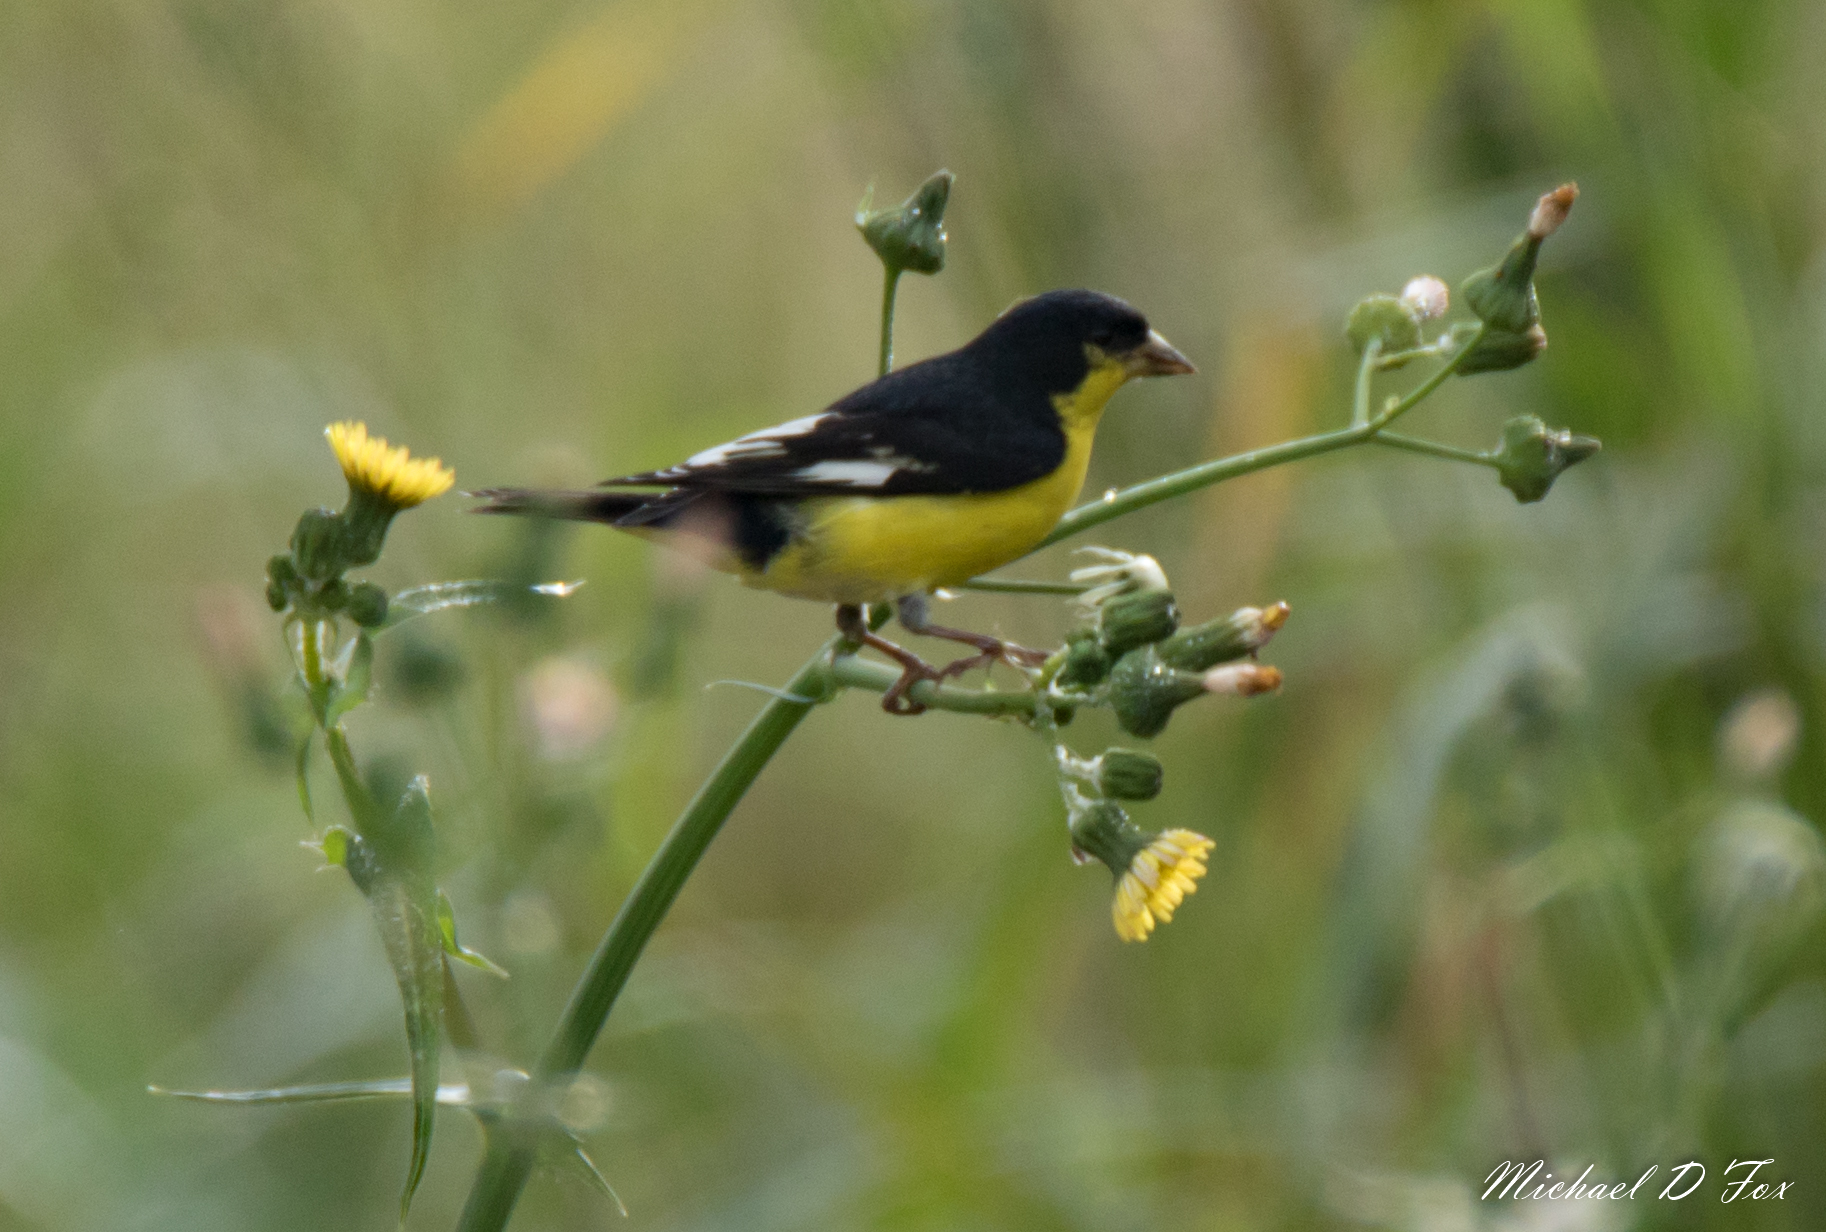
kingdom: Animalia
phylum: Chordata
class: Aves
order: Passeriformes
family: Fringillidae
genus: Spinus
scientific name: Spinus psaltria
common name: Lesser goldfinch
